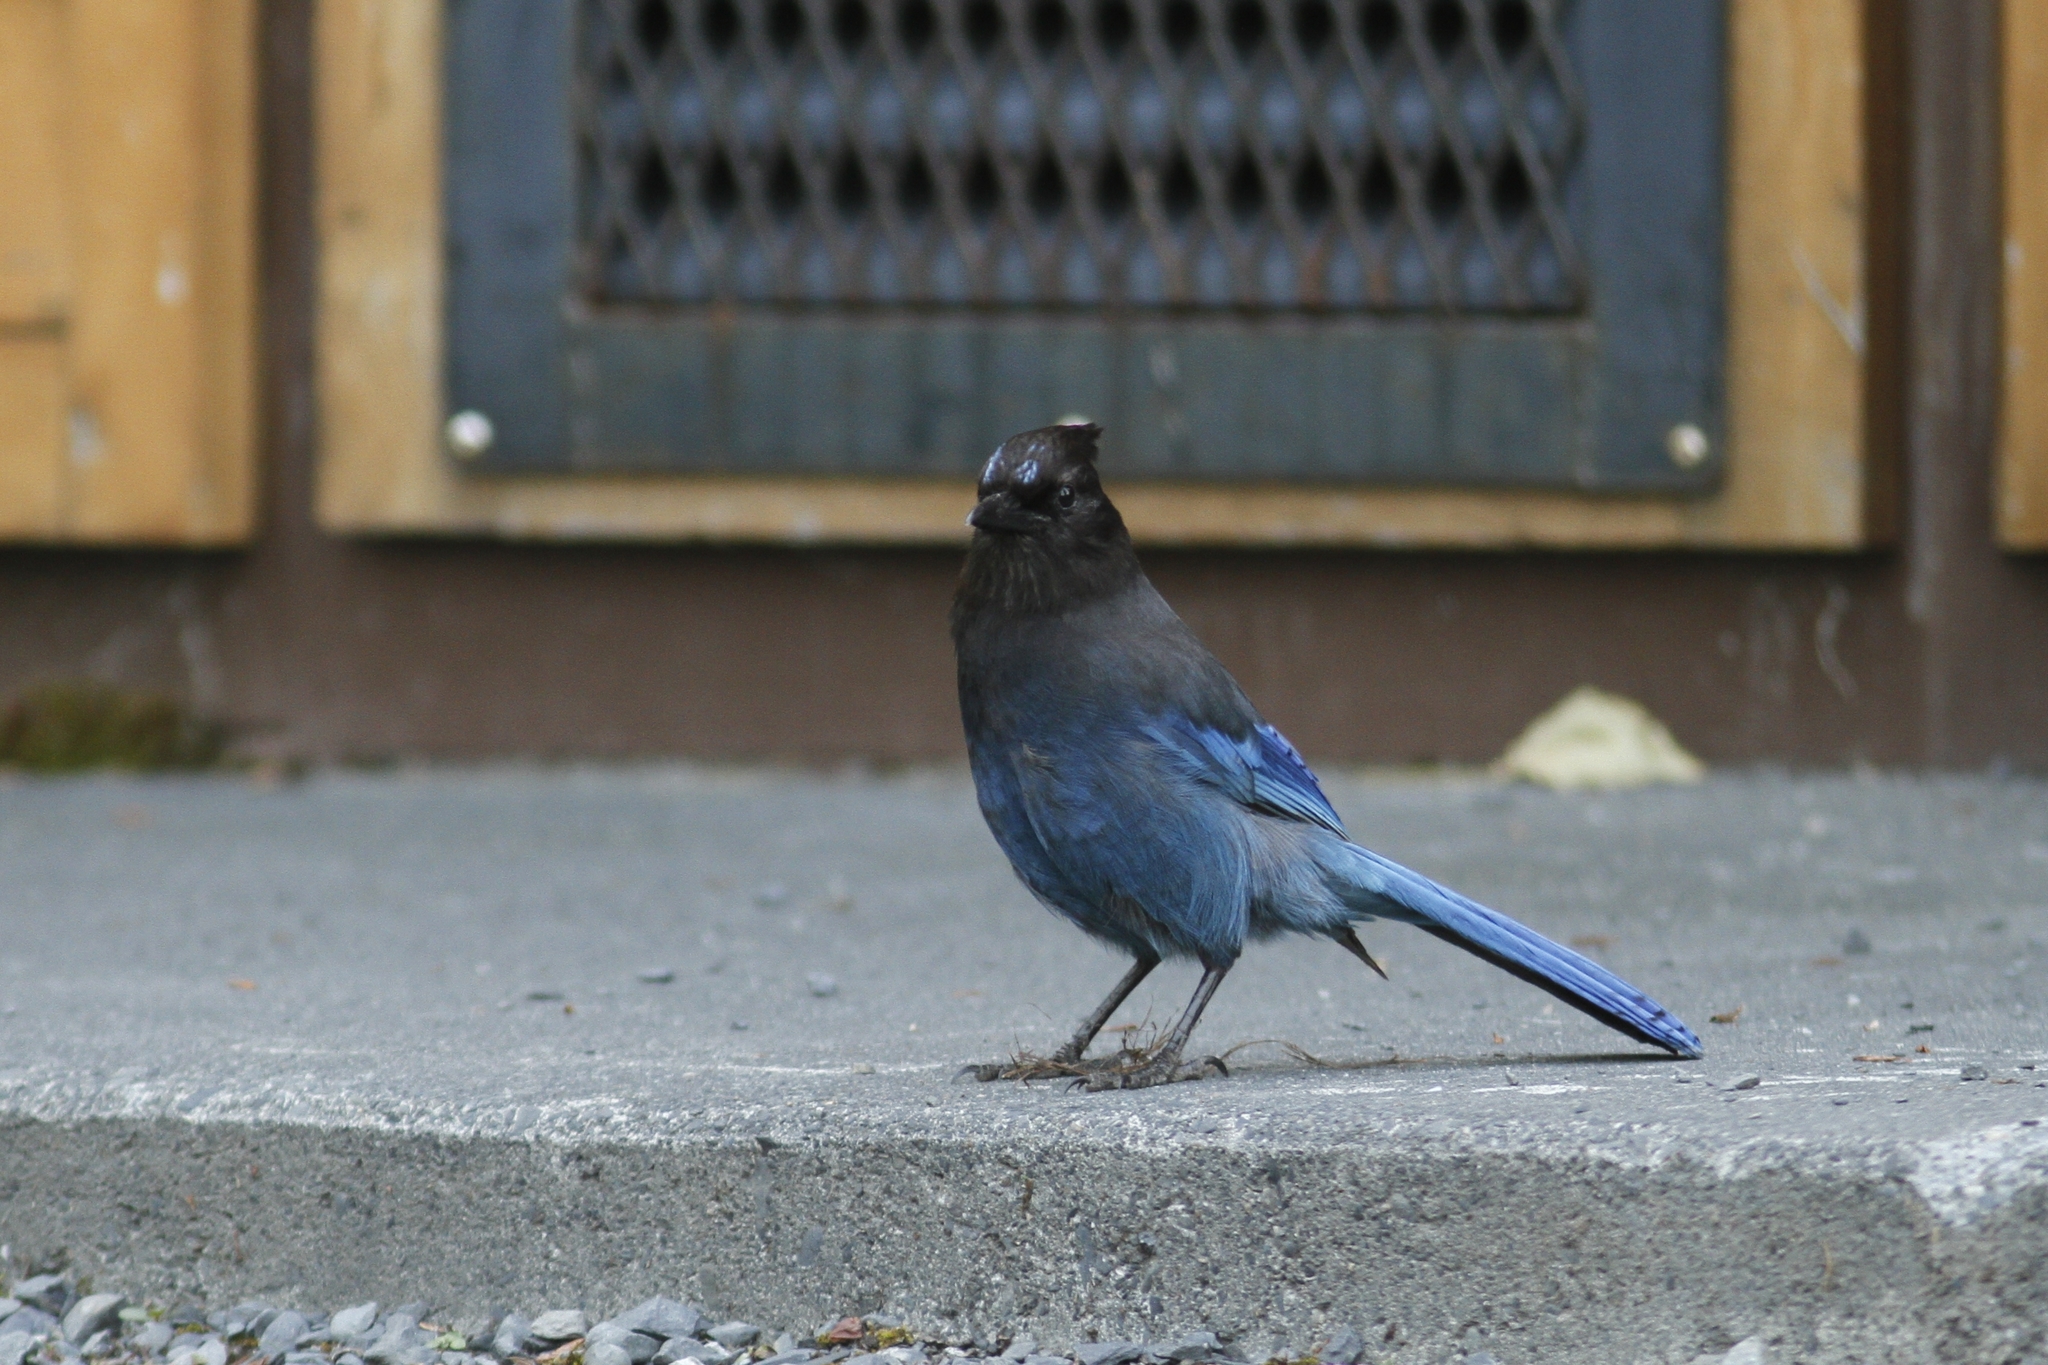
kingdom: Animalia
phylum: Chordata
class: Aves
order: Passeriformes
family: Corvidae
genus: Cyanocitta
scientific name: Cyanocitta stelleri
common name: Steller's jay
